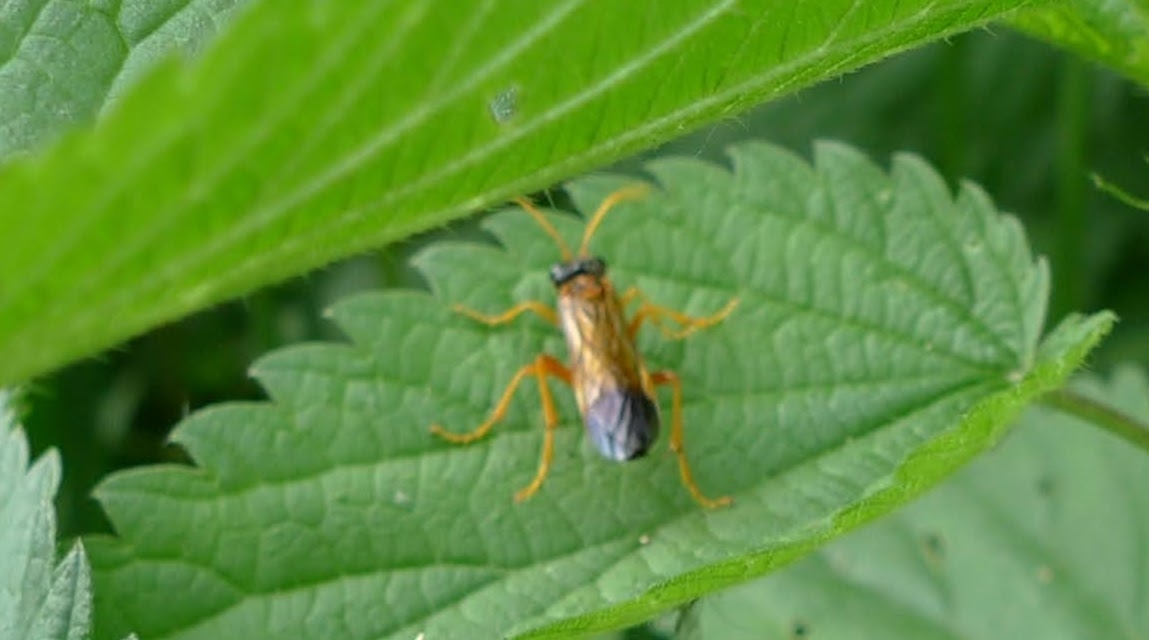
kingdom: Animalia
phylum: Arthropoda
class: Insecta
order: Hymenoptera
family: Tenthredinidae
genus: Tenthredo
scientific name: Tenthredo campestris
